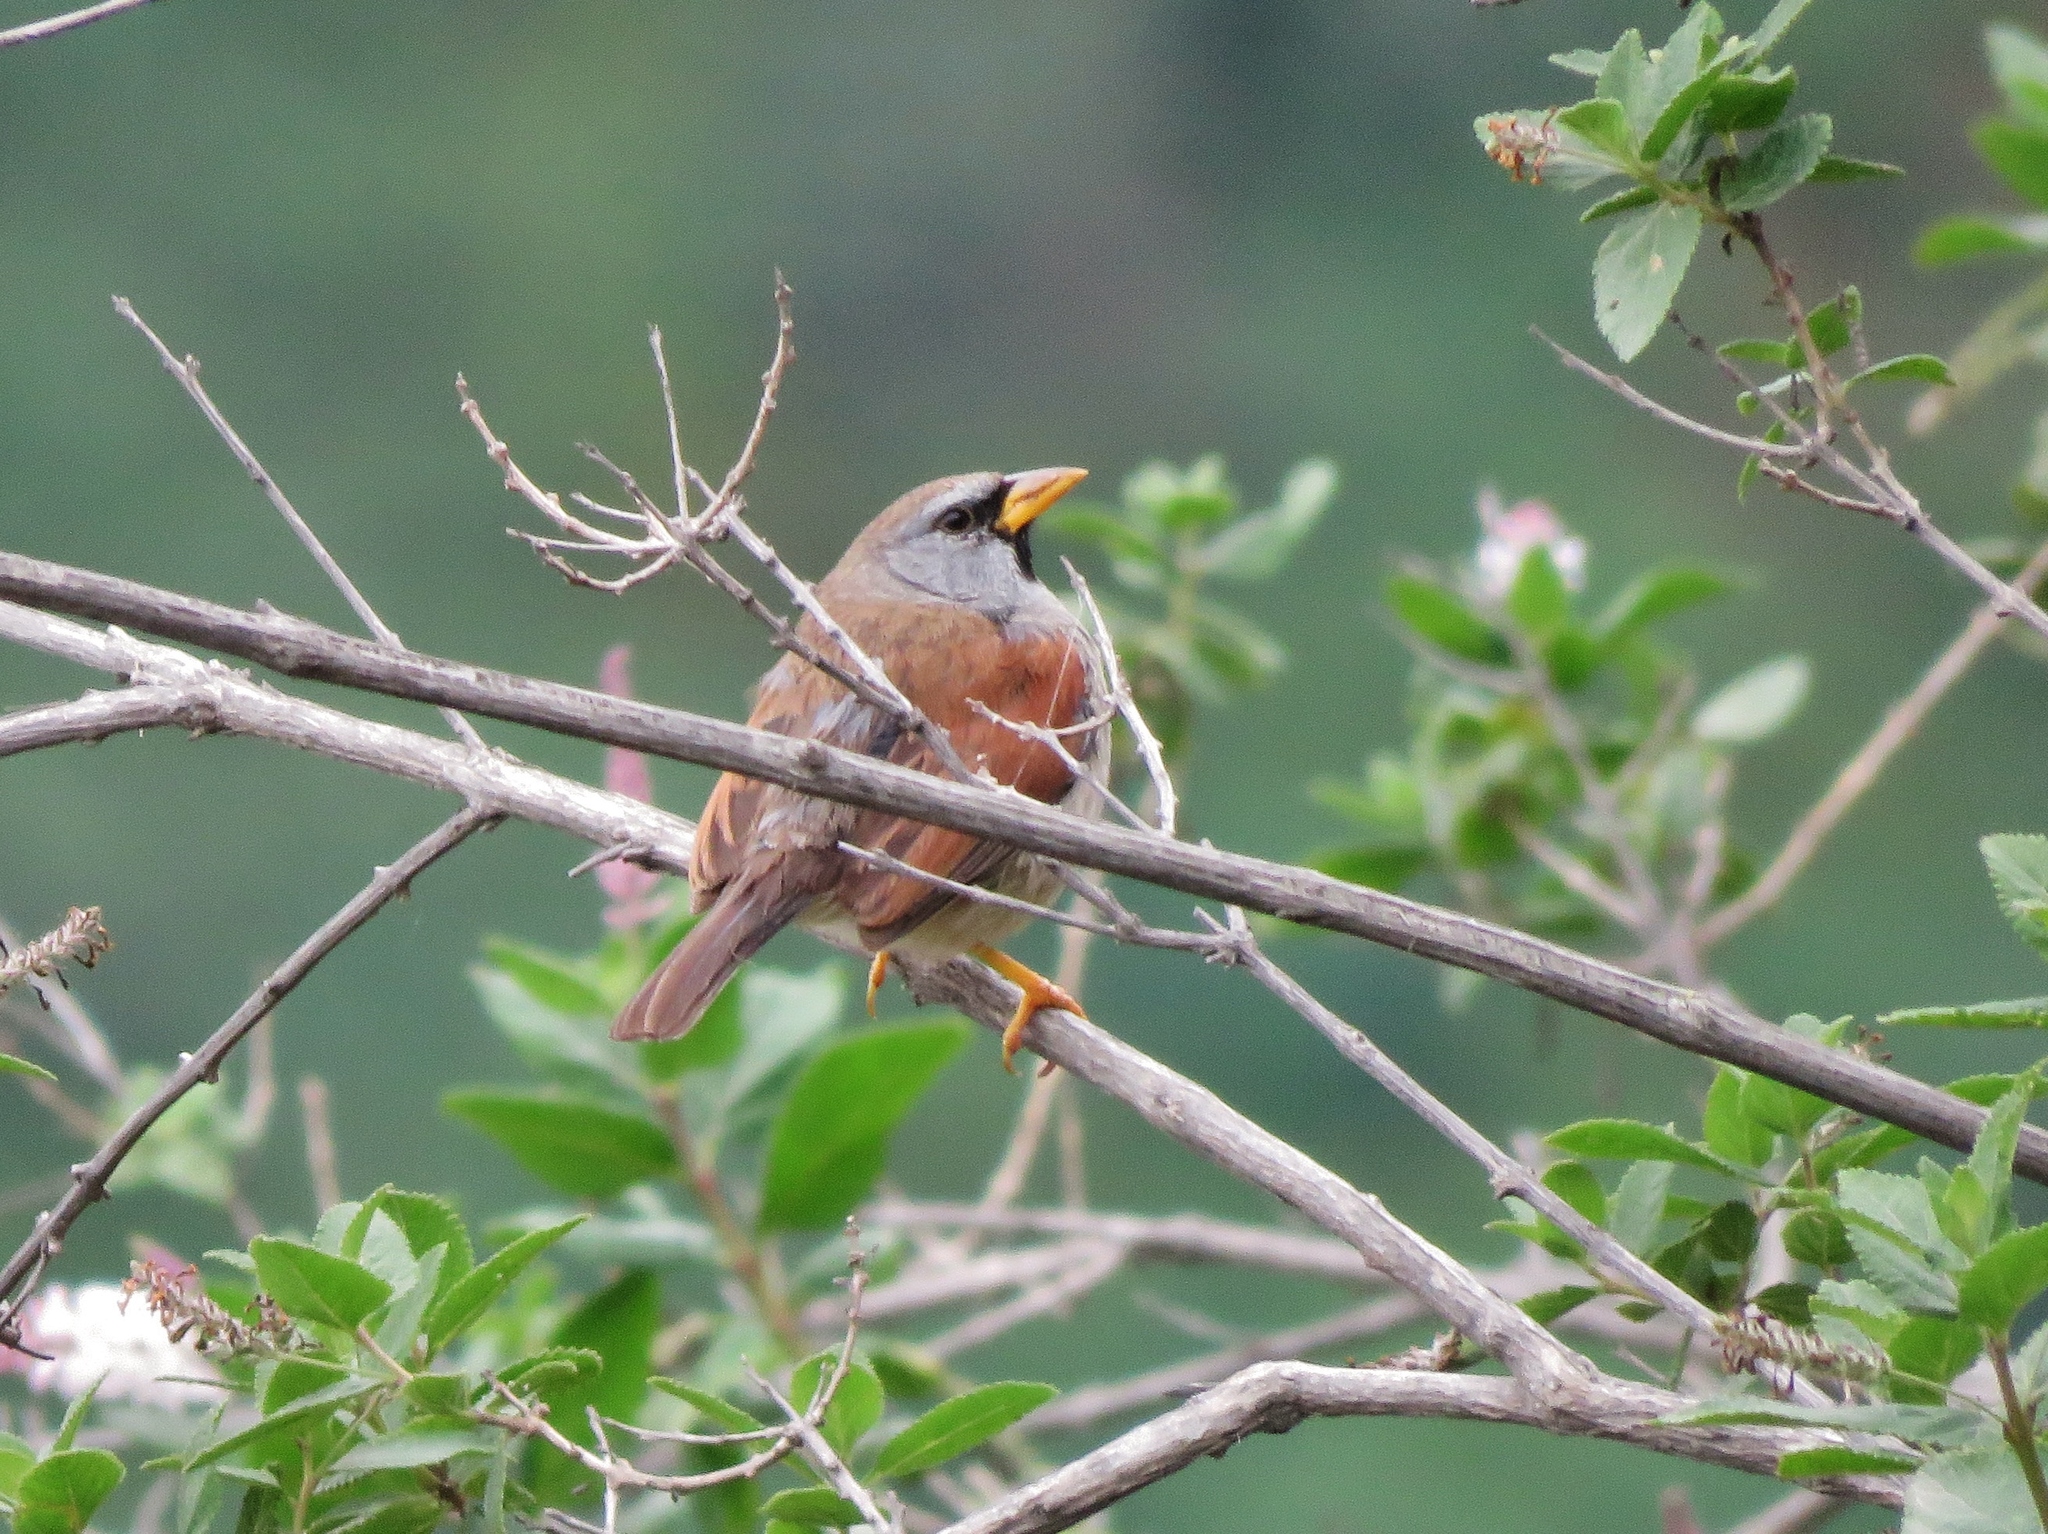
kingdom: Animalia
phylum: Chordata
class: Aves
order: Passeriformes
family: Thraupidae
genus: Incaspiza
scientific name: Incaspiza pulchra
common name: Great inca finch
